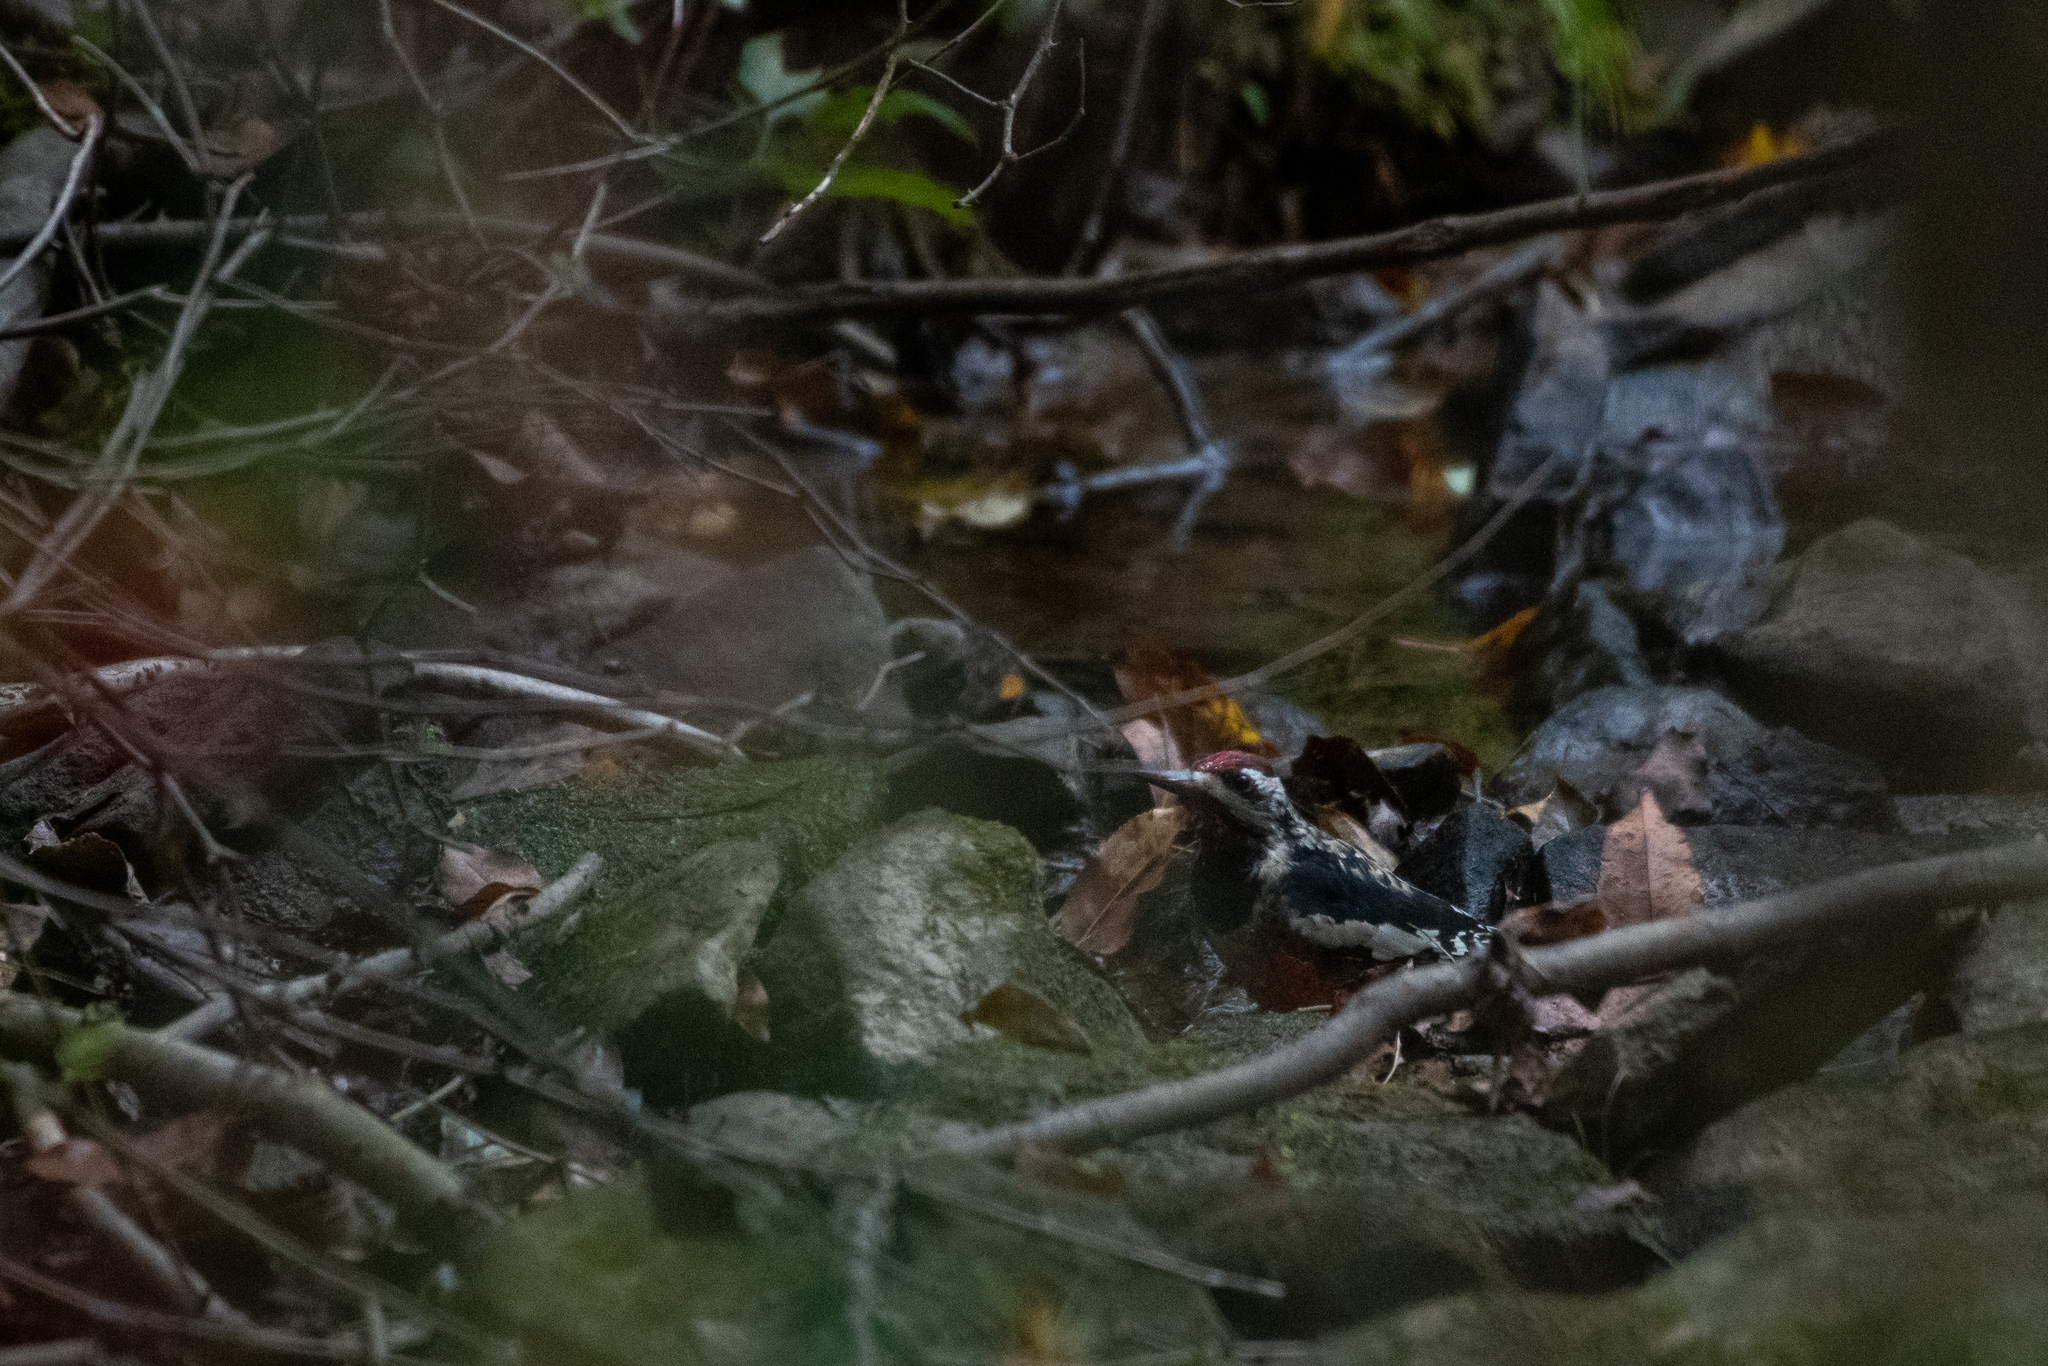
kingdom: Animalia
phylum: Chordata
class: Aves
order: Piciformes
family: Picidae
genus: Sphyrapicus
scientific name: Sphyrapicus varius
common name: Yellow-bellied sapsucker
